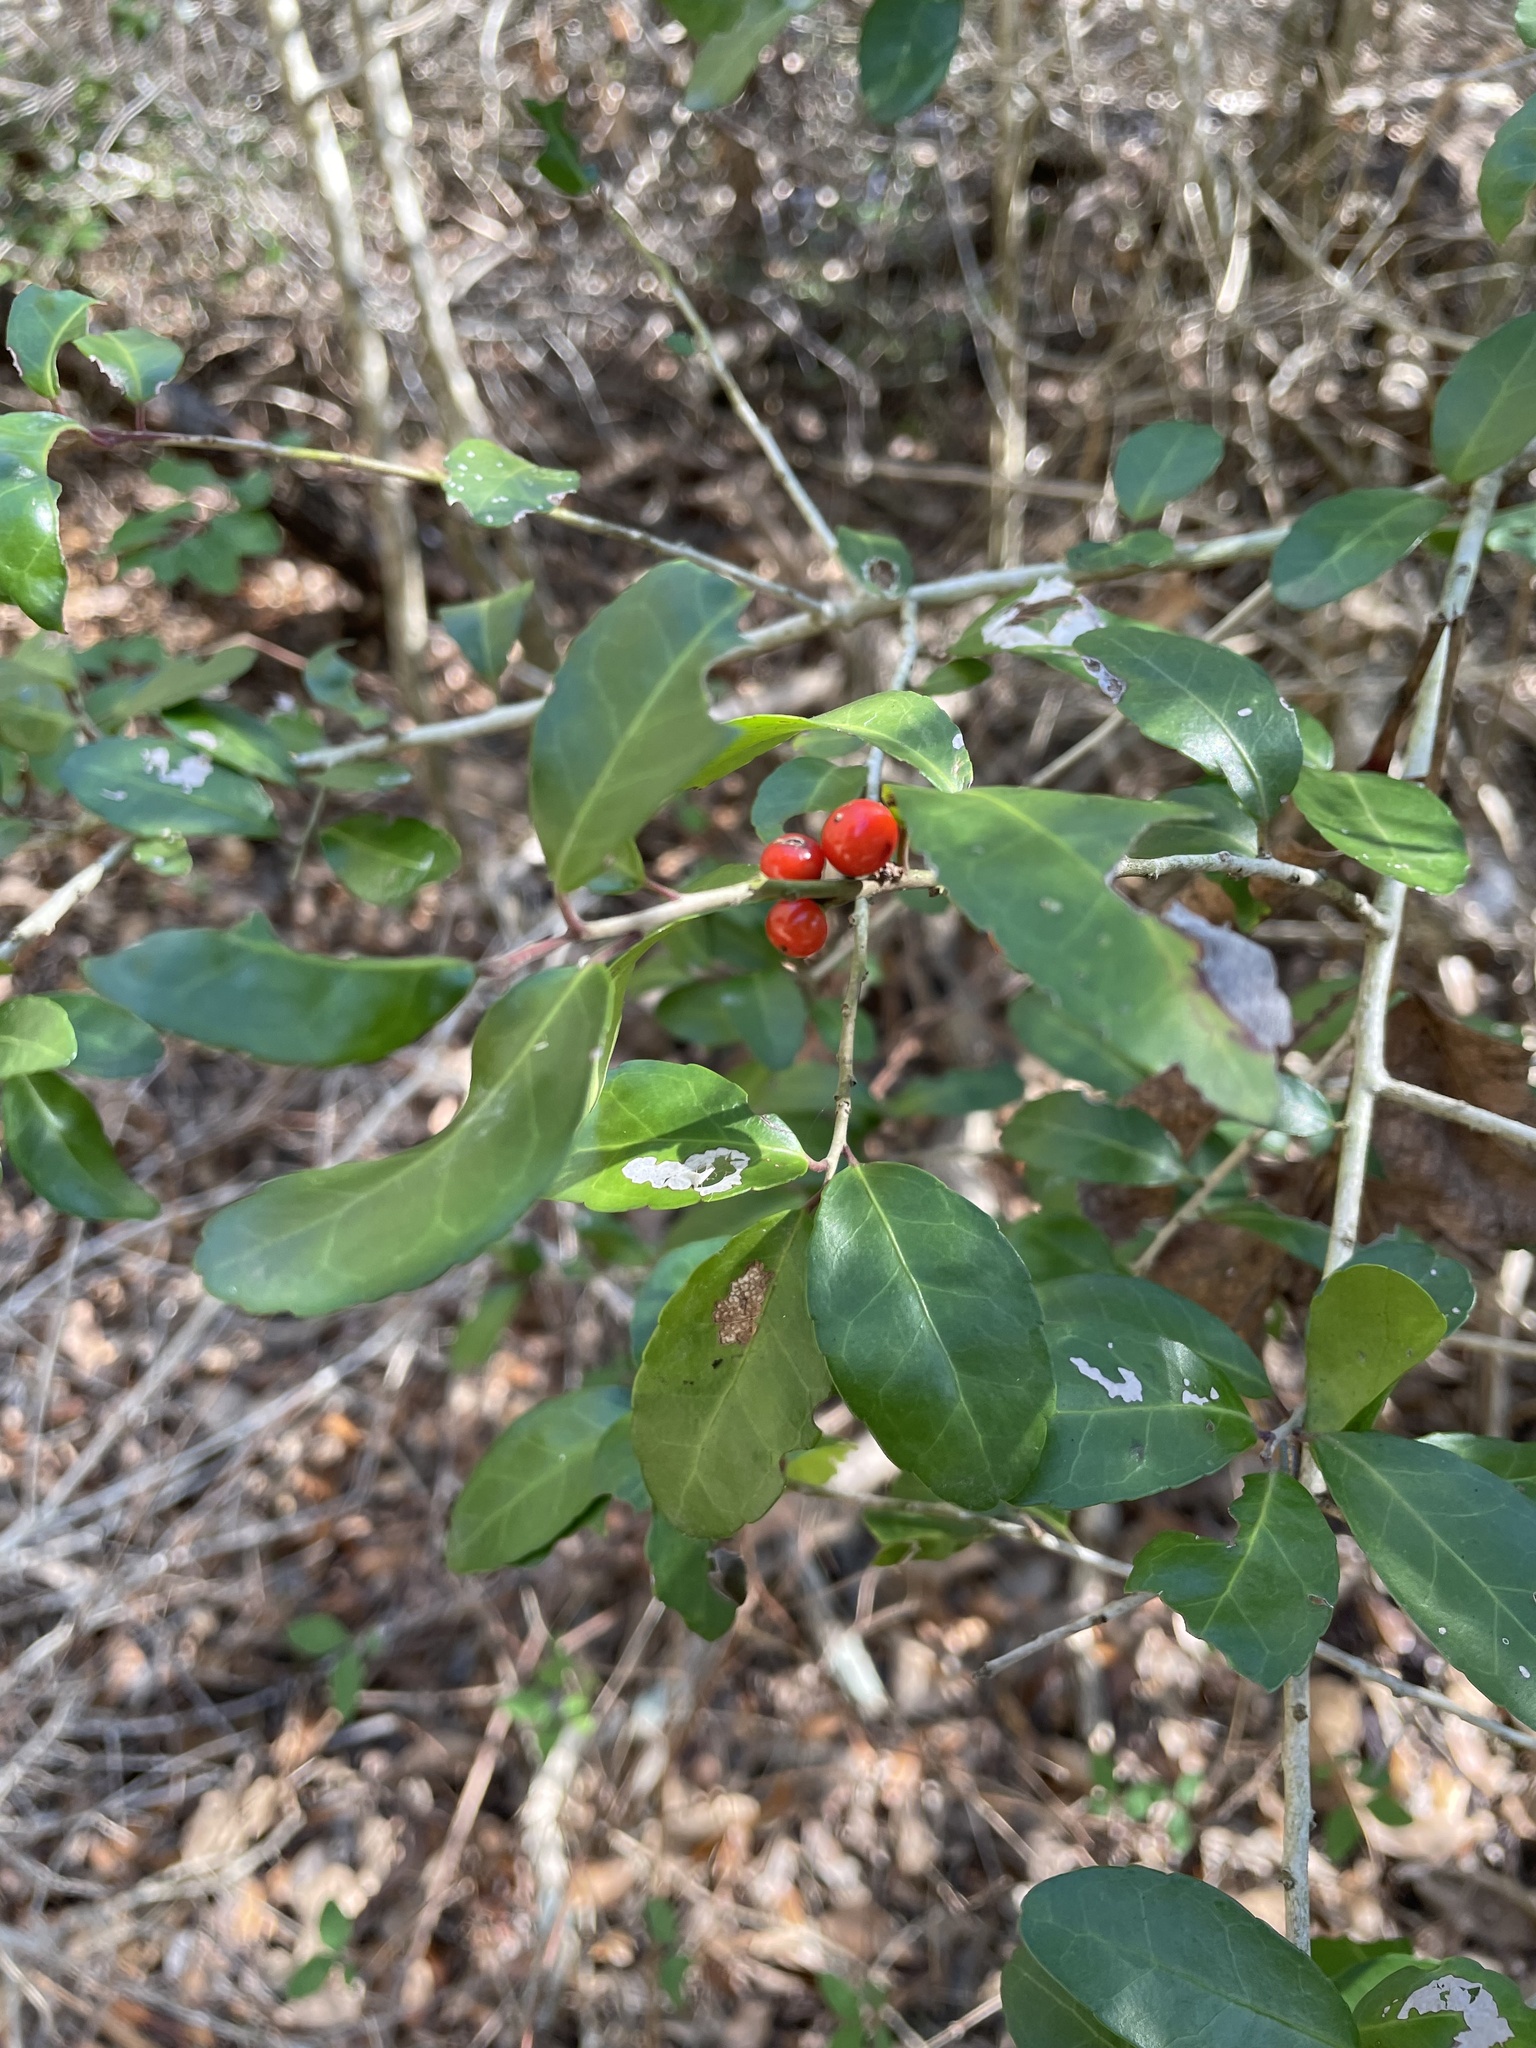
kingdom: Plantae
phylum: Tracheophyta
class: Magnoliopsida
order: Aquifoliales
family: Aquifoliaceae
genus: Ilex
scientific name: Ilex vomitoria
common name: Yaupon holly
